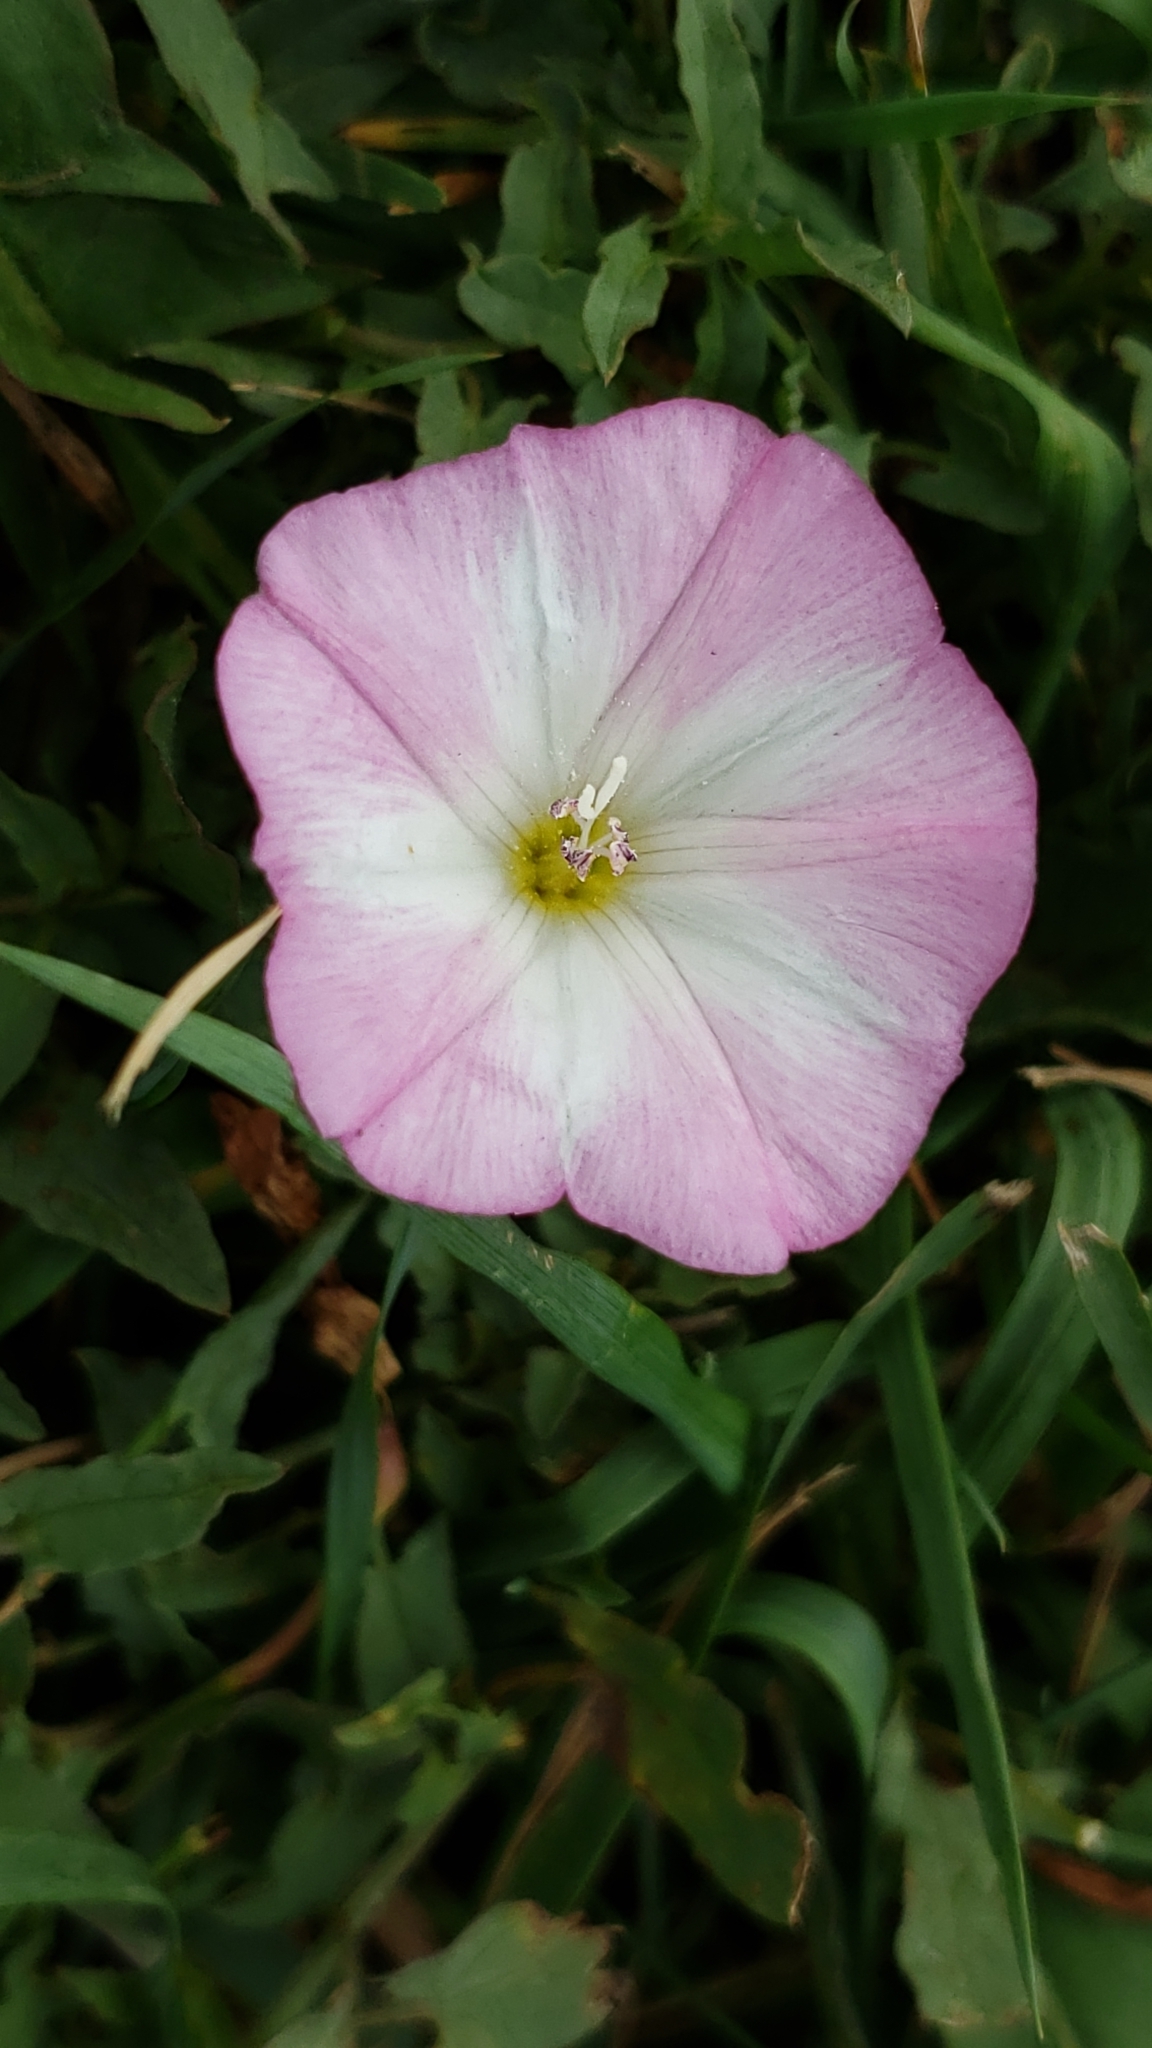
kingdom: Plantae
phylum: Tracheophyta
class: Magnoliopsida
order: Solanales
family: Convolvulaceae
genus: Convolvulus
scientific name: Convolvulus arvensis
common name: Field bindweed
